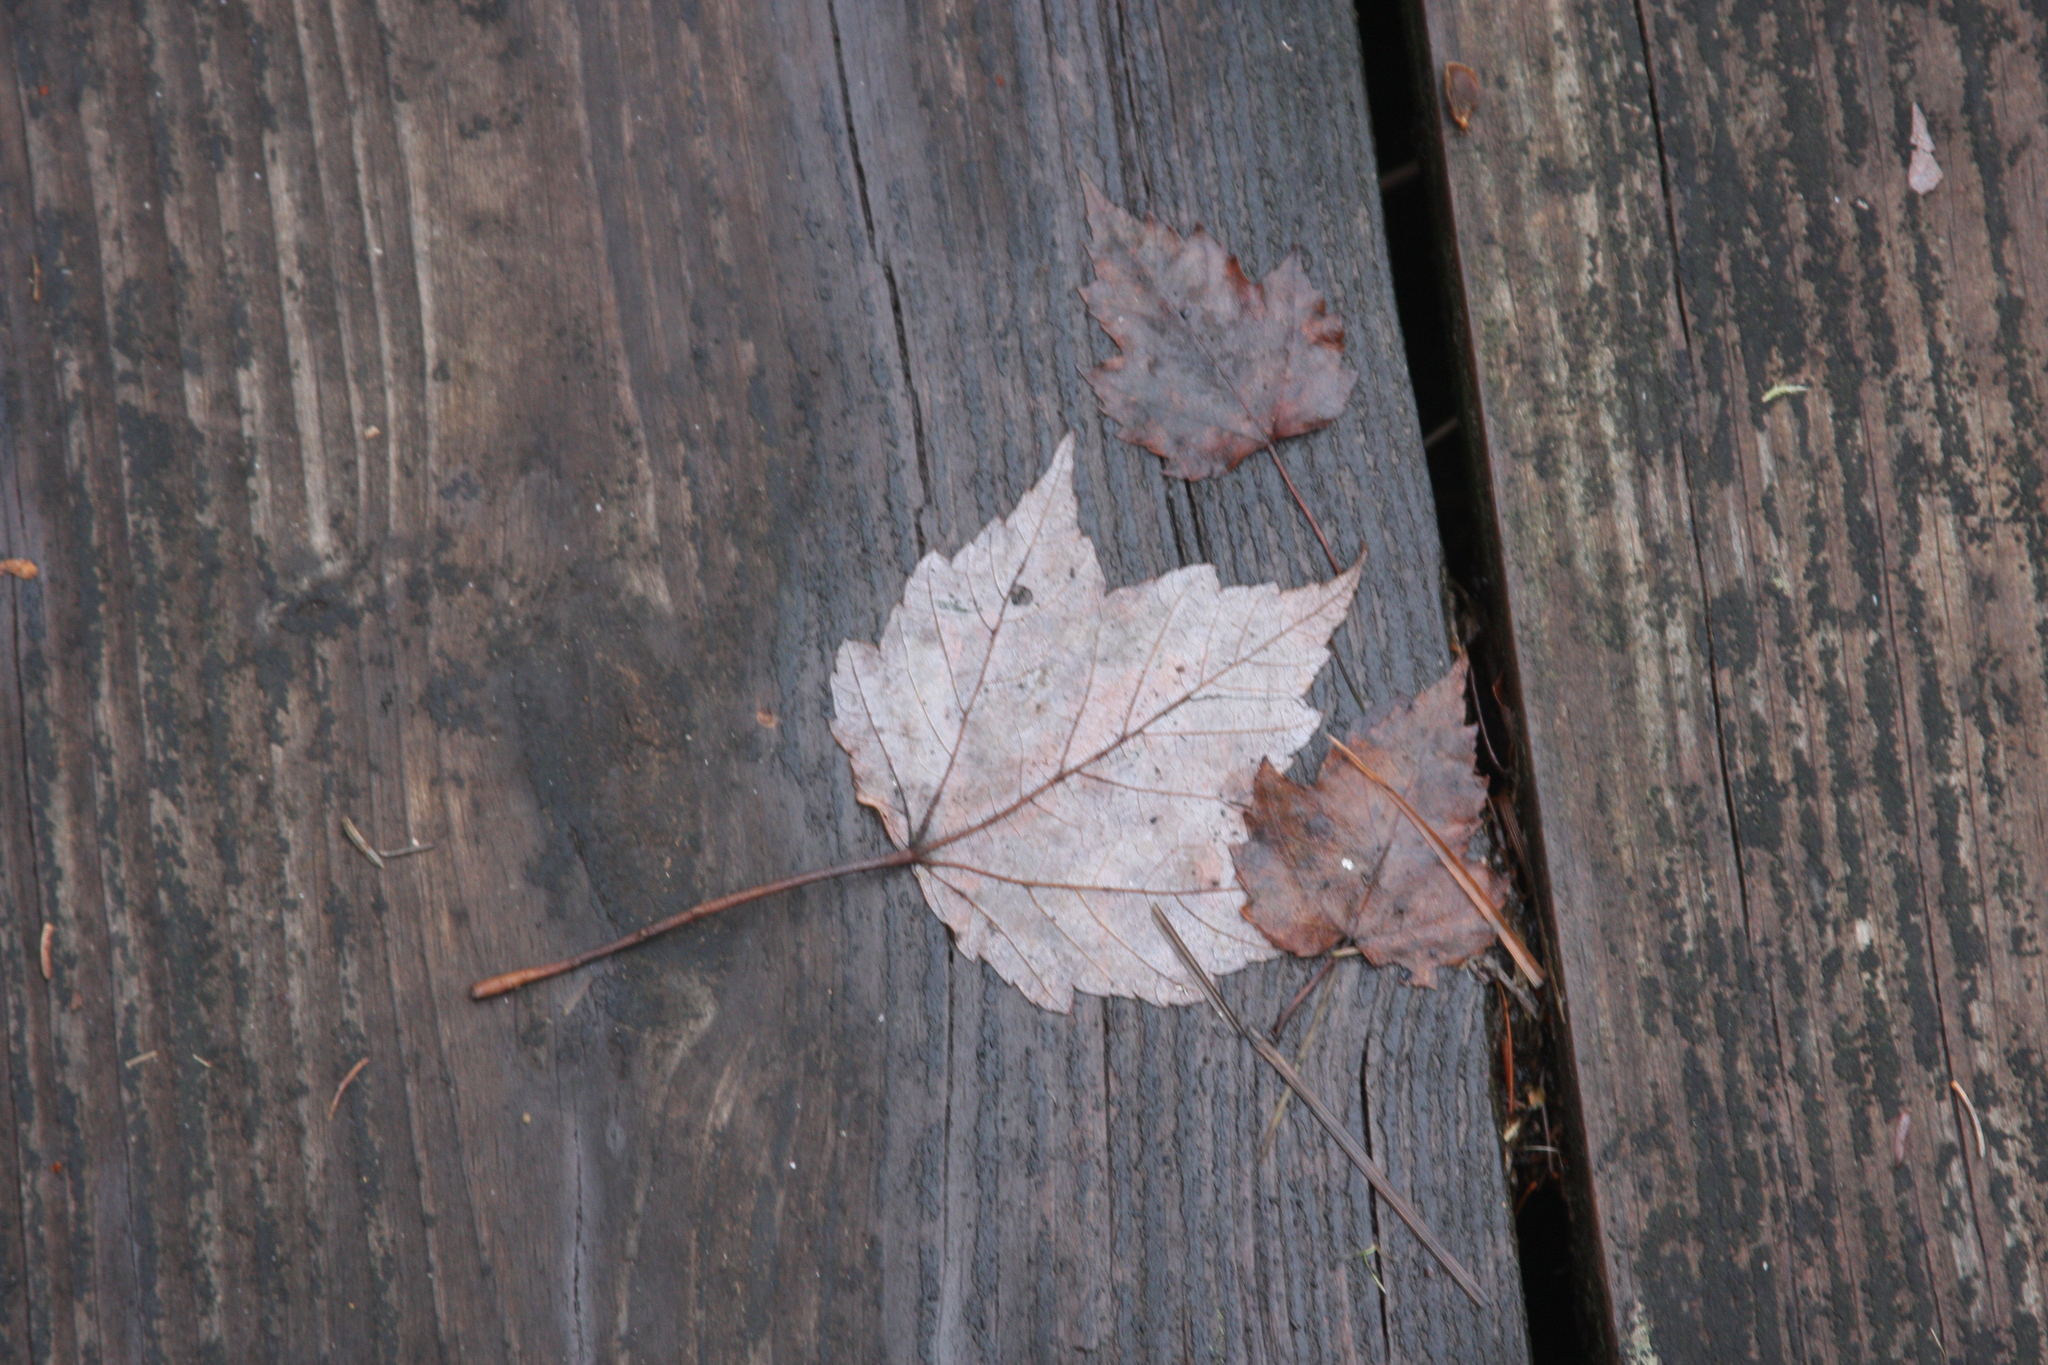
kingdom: Plantae
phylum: Tracheophyta
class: Magnoliopsida
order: Sapindales
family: Sapindaceae
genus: Acer
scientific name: Acer rubrum
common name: Red maple
